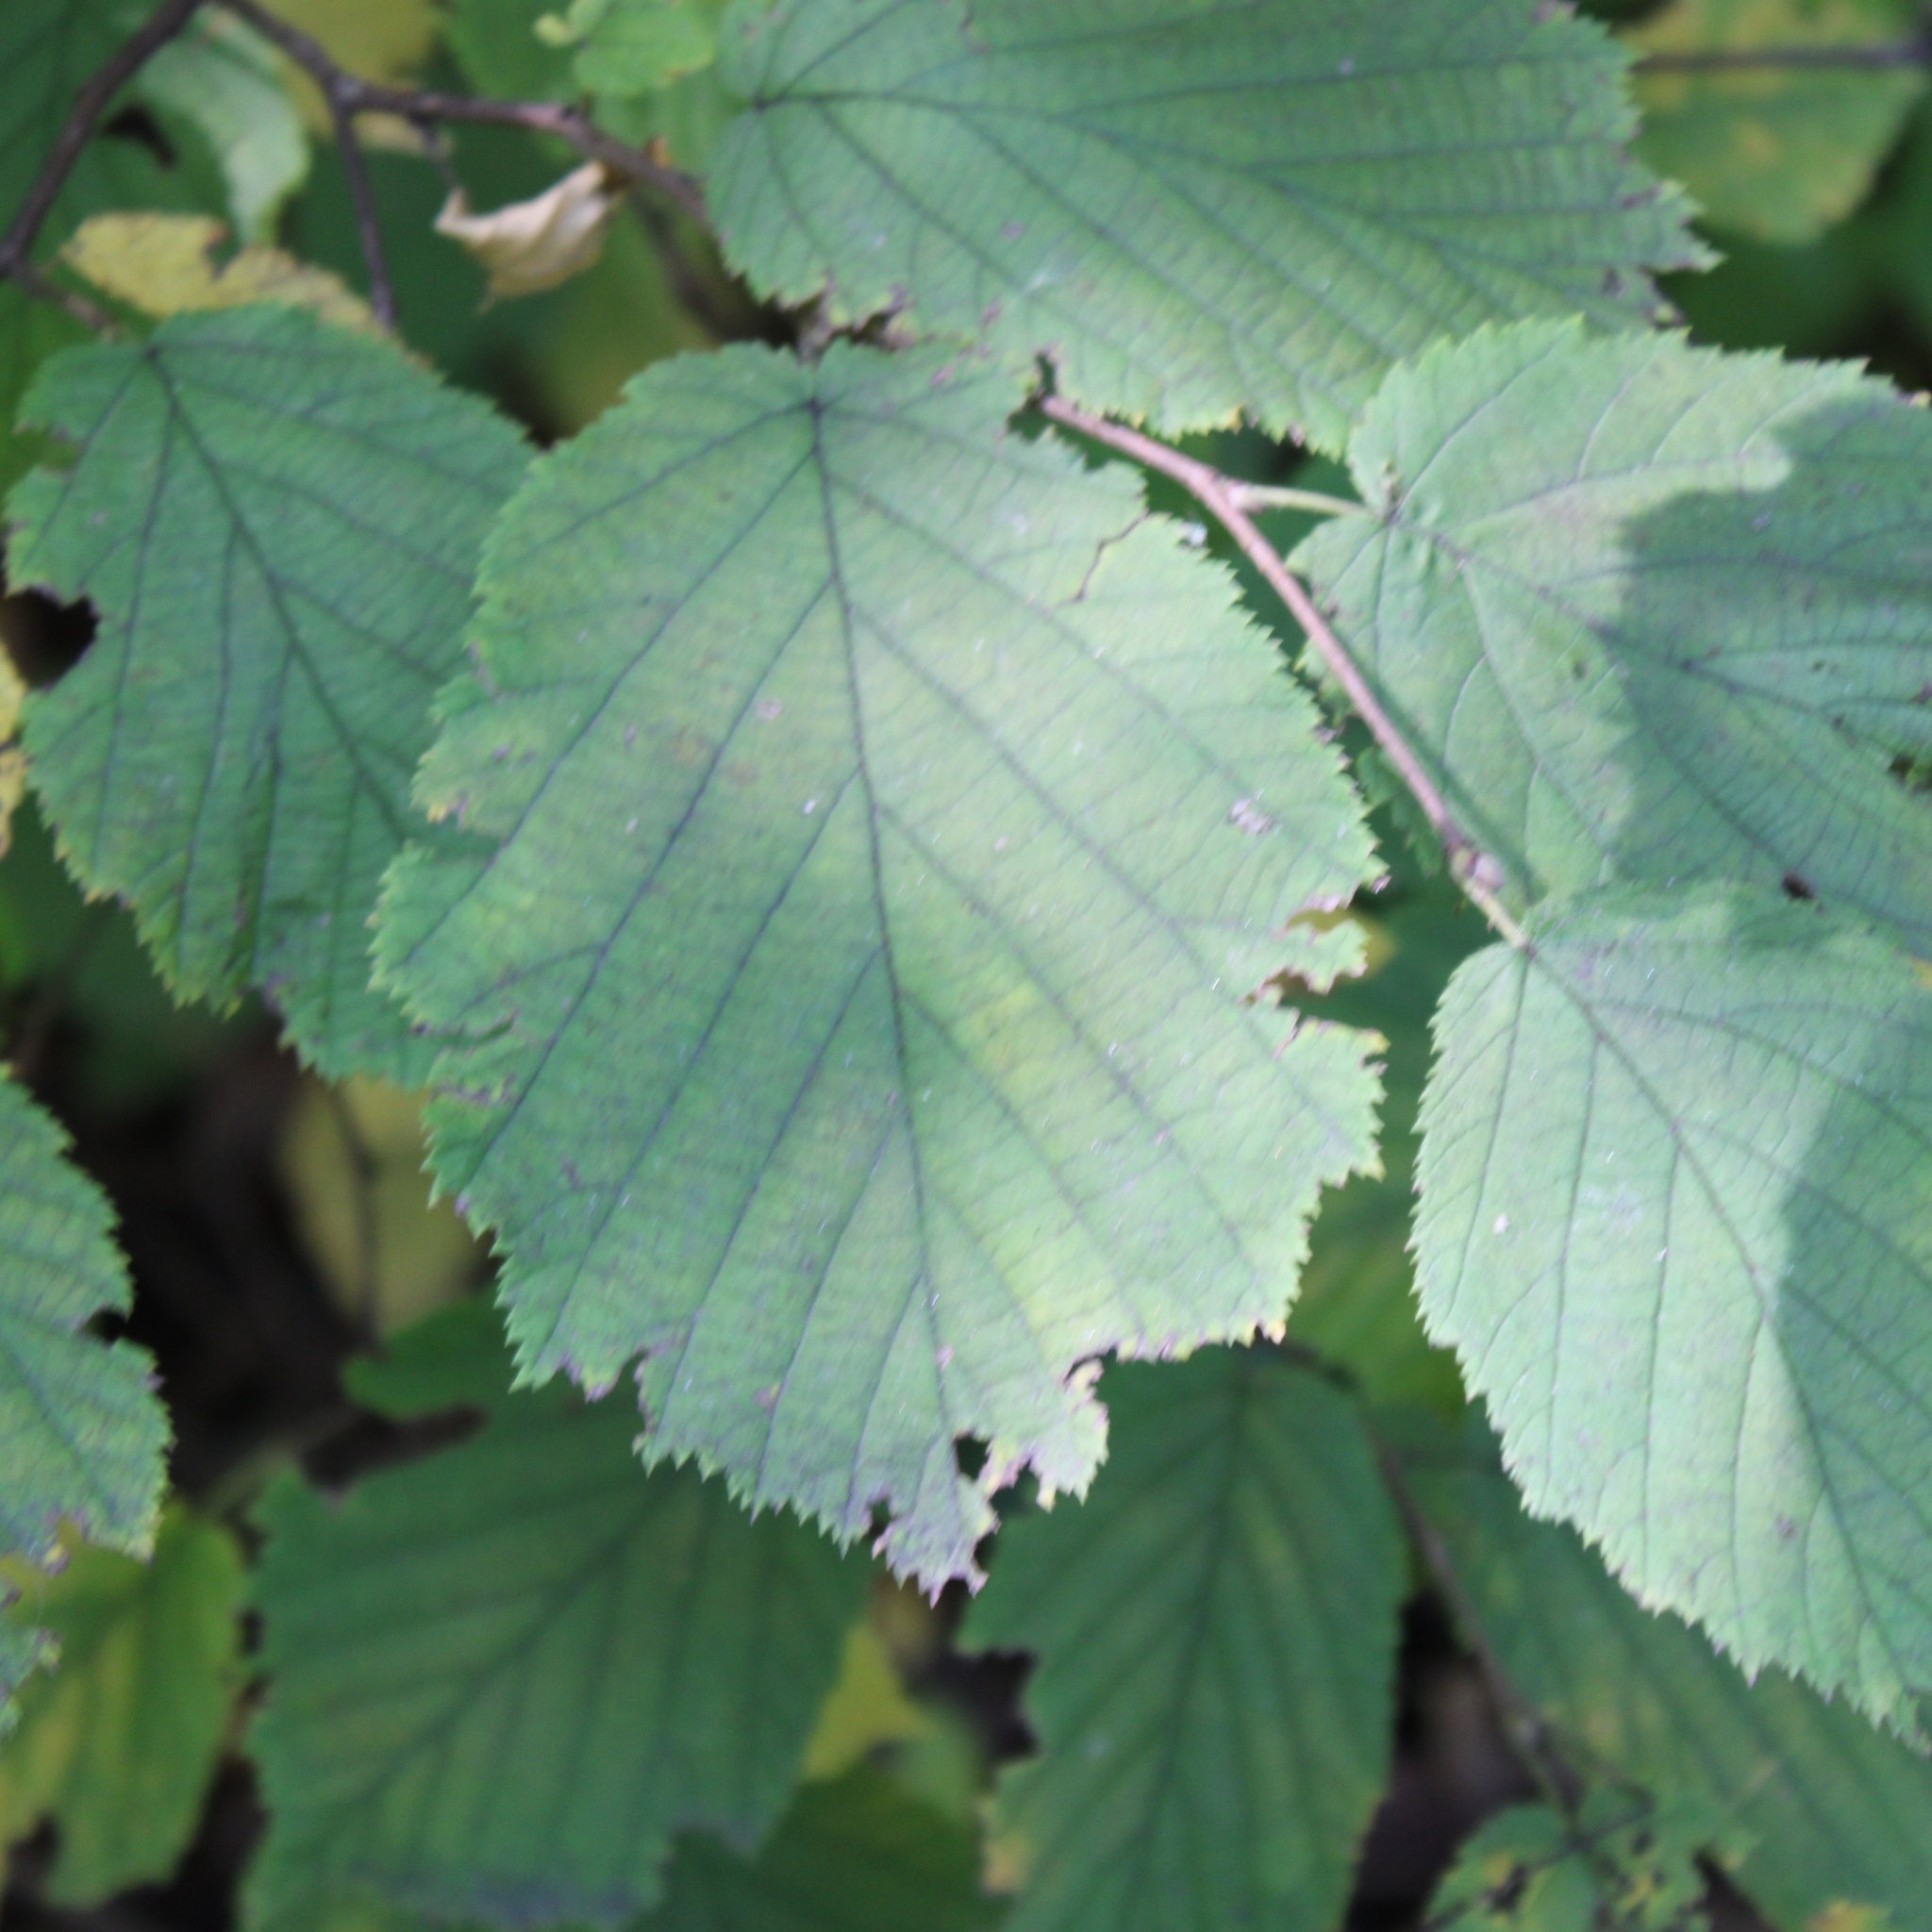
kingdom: Plantae
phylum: Tracheophyta
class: Magnoliopsida
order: Fagales
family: Betulaceae
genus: Corylus
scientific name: Corylus cornuta
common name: Beaked hazel
